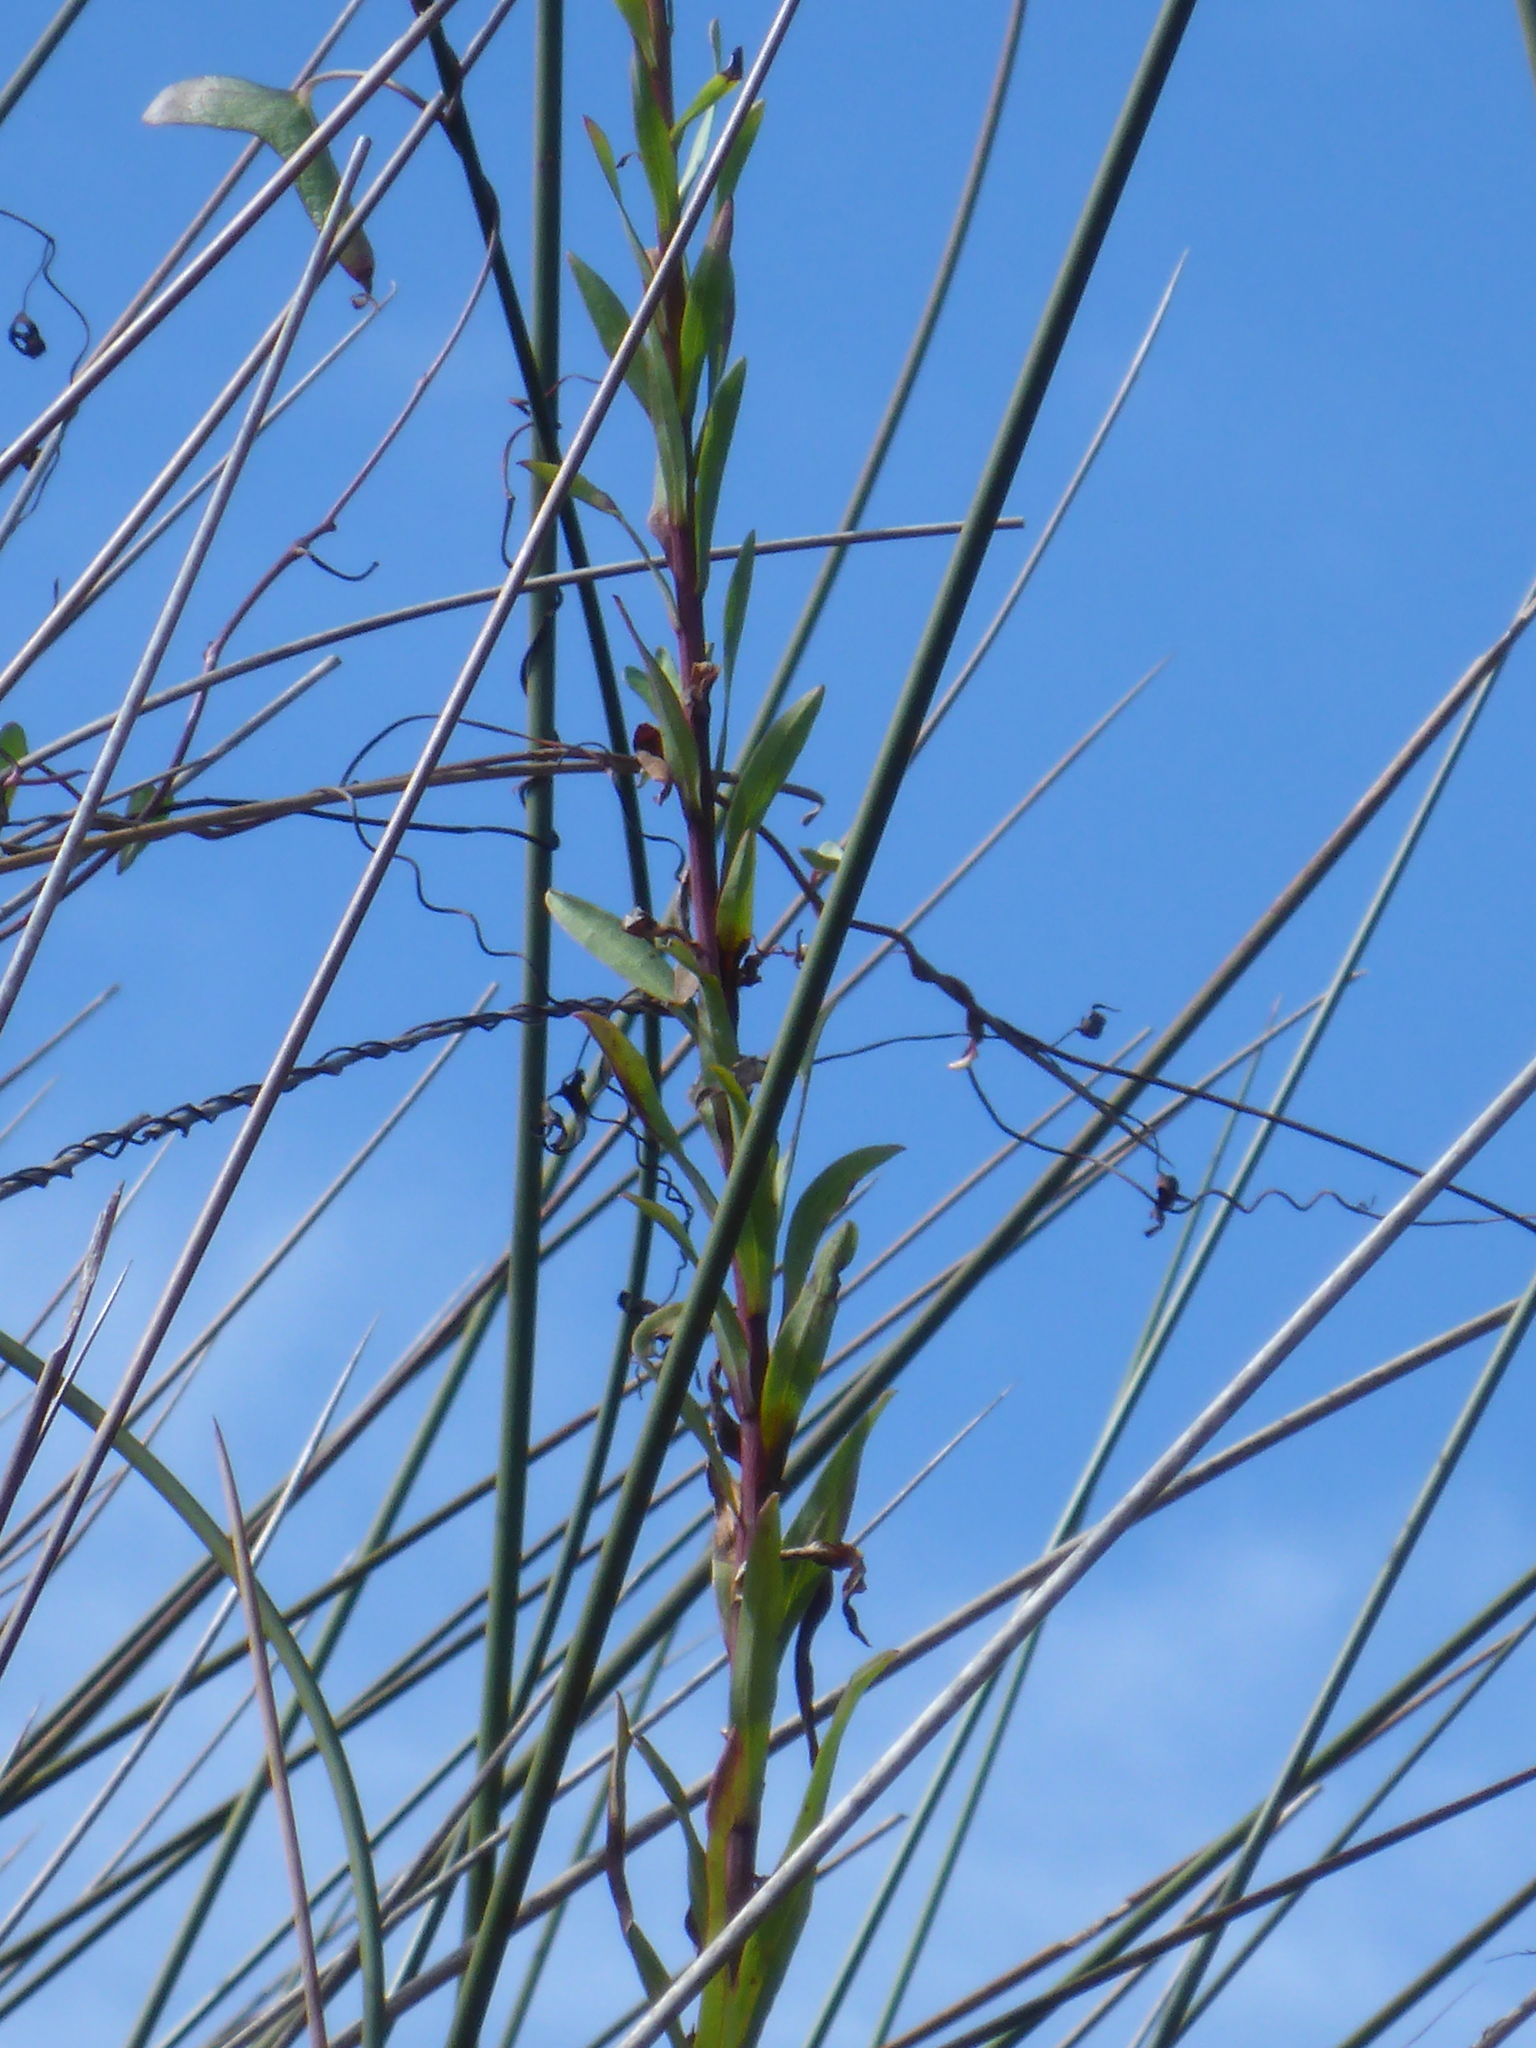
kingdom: Plantae
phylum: Tracheophyta
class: Magnoliopsida
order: Asterales
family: Asteraceae
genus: Solidago
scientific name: Solidago mexicana
